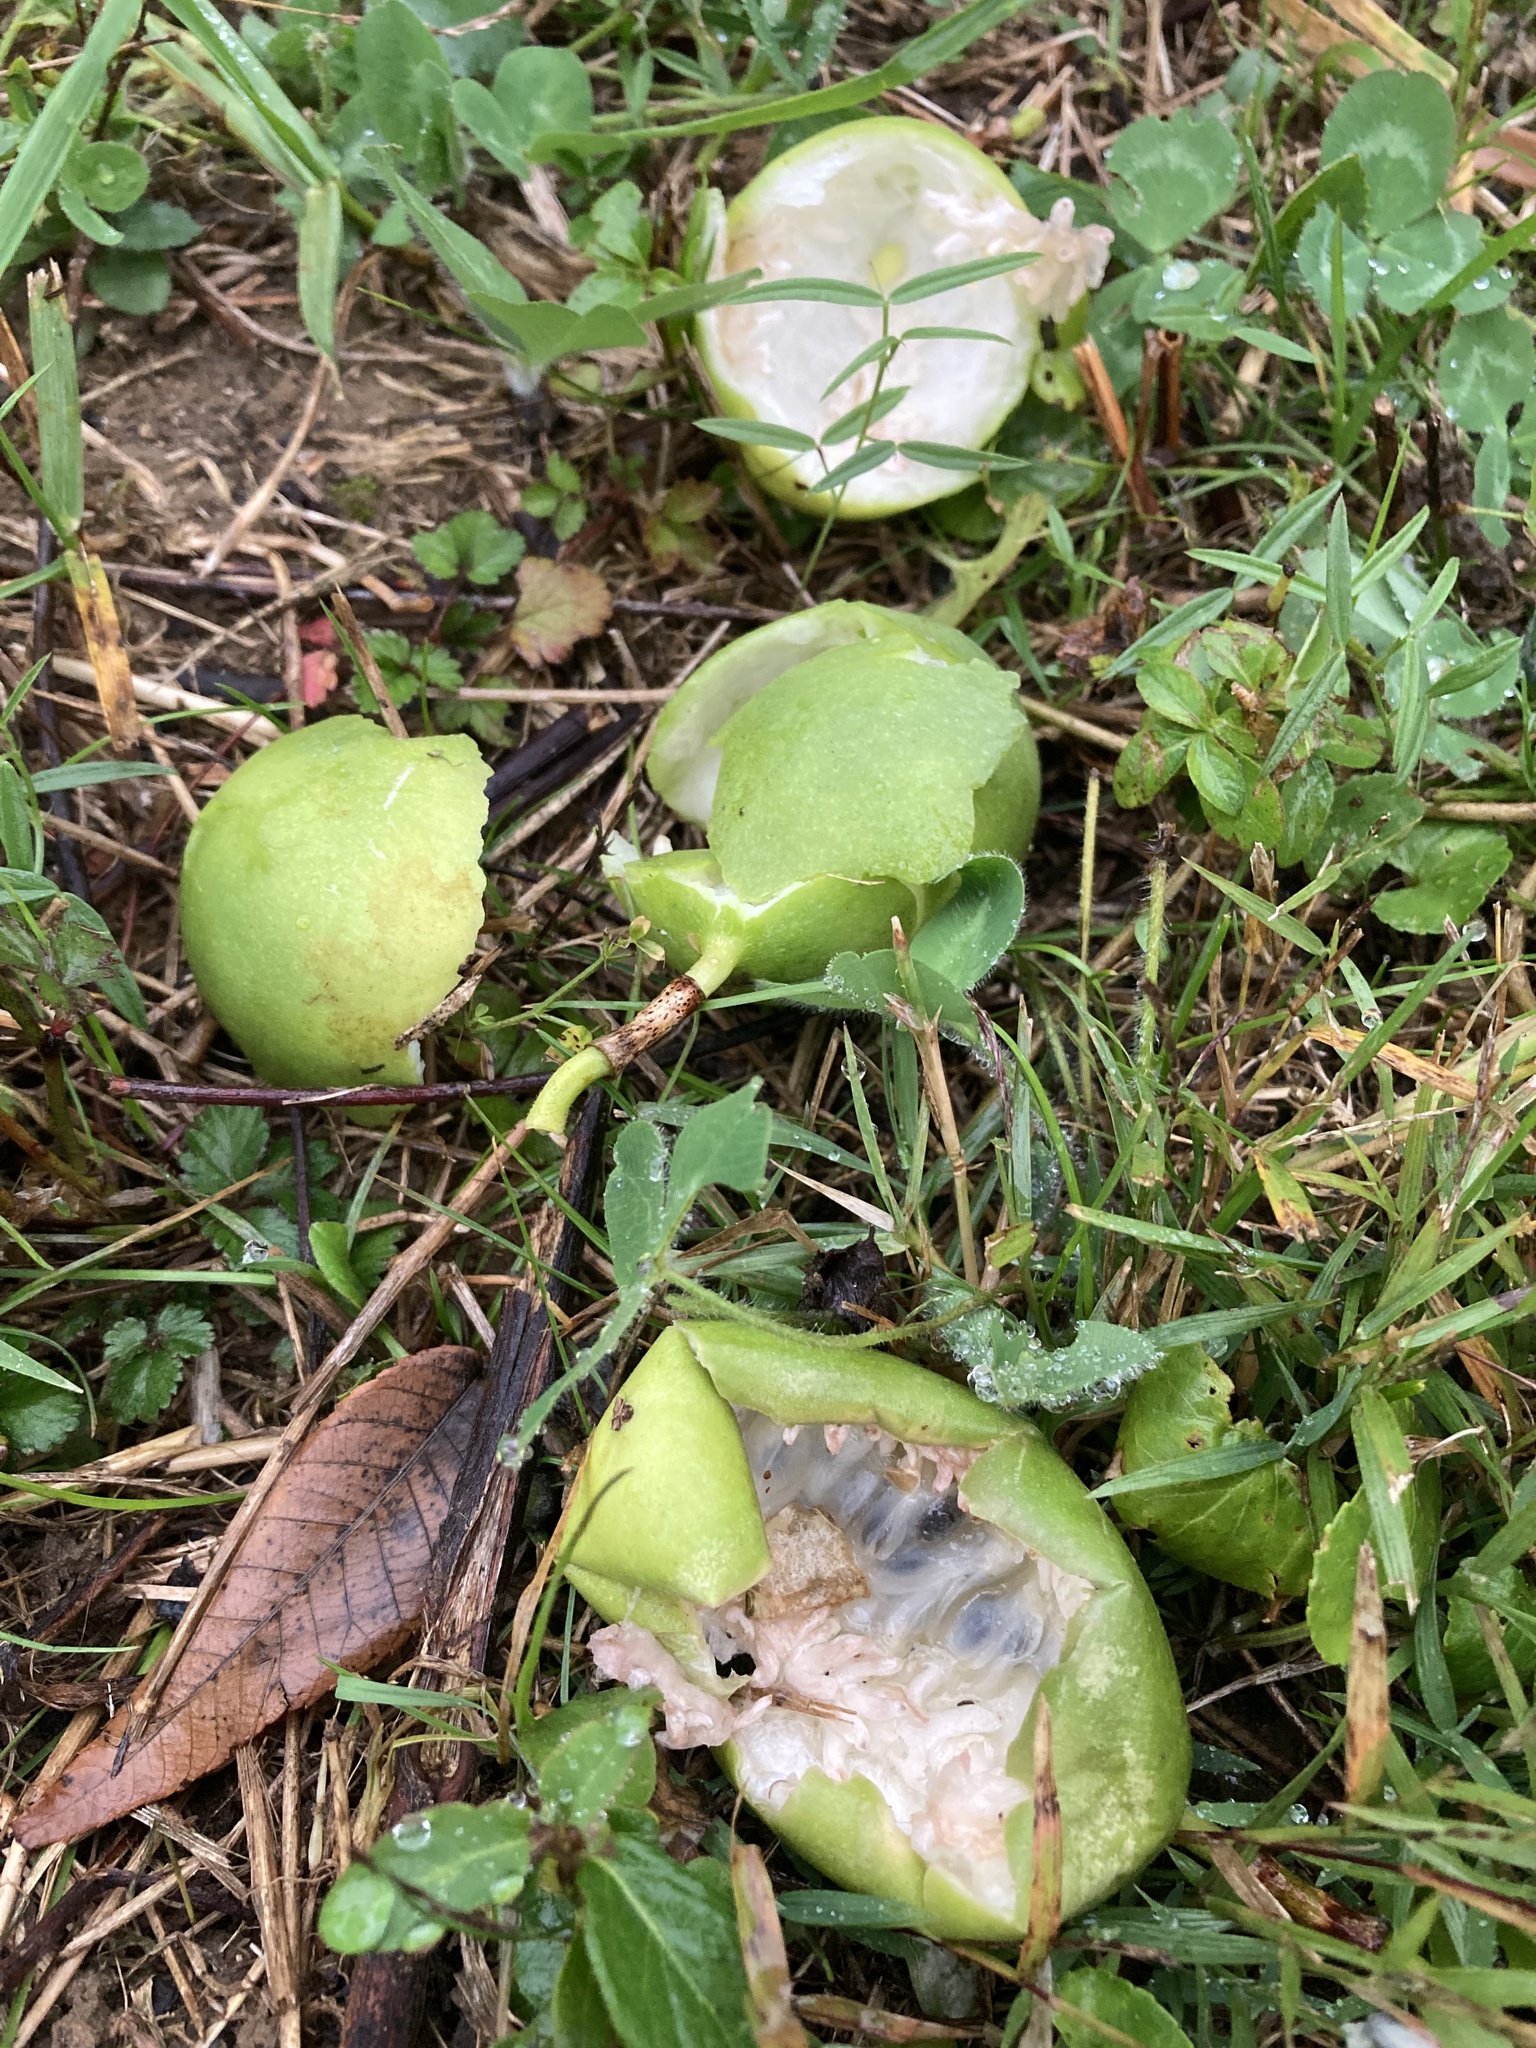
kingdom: Plantae
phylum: Tracheophyta
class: Magnoliopsida
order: Malpighiales
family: Passifloraceae
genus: Passiflora
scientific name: Passiflora incarnata
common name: Apricot-vine
